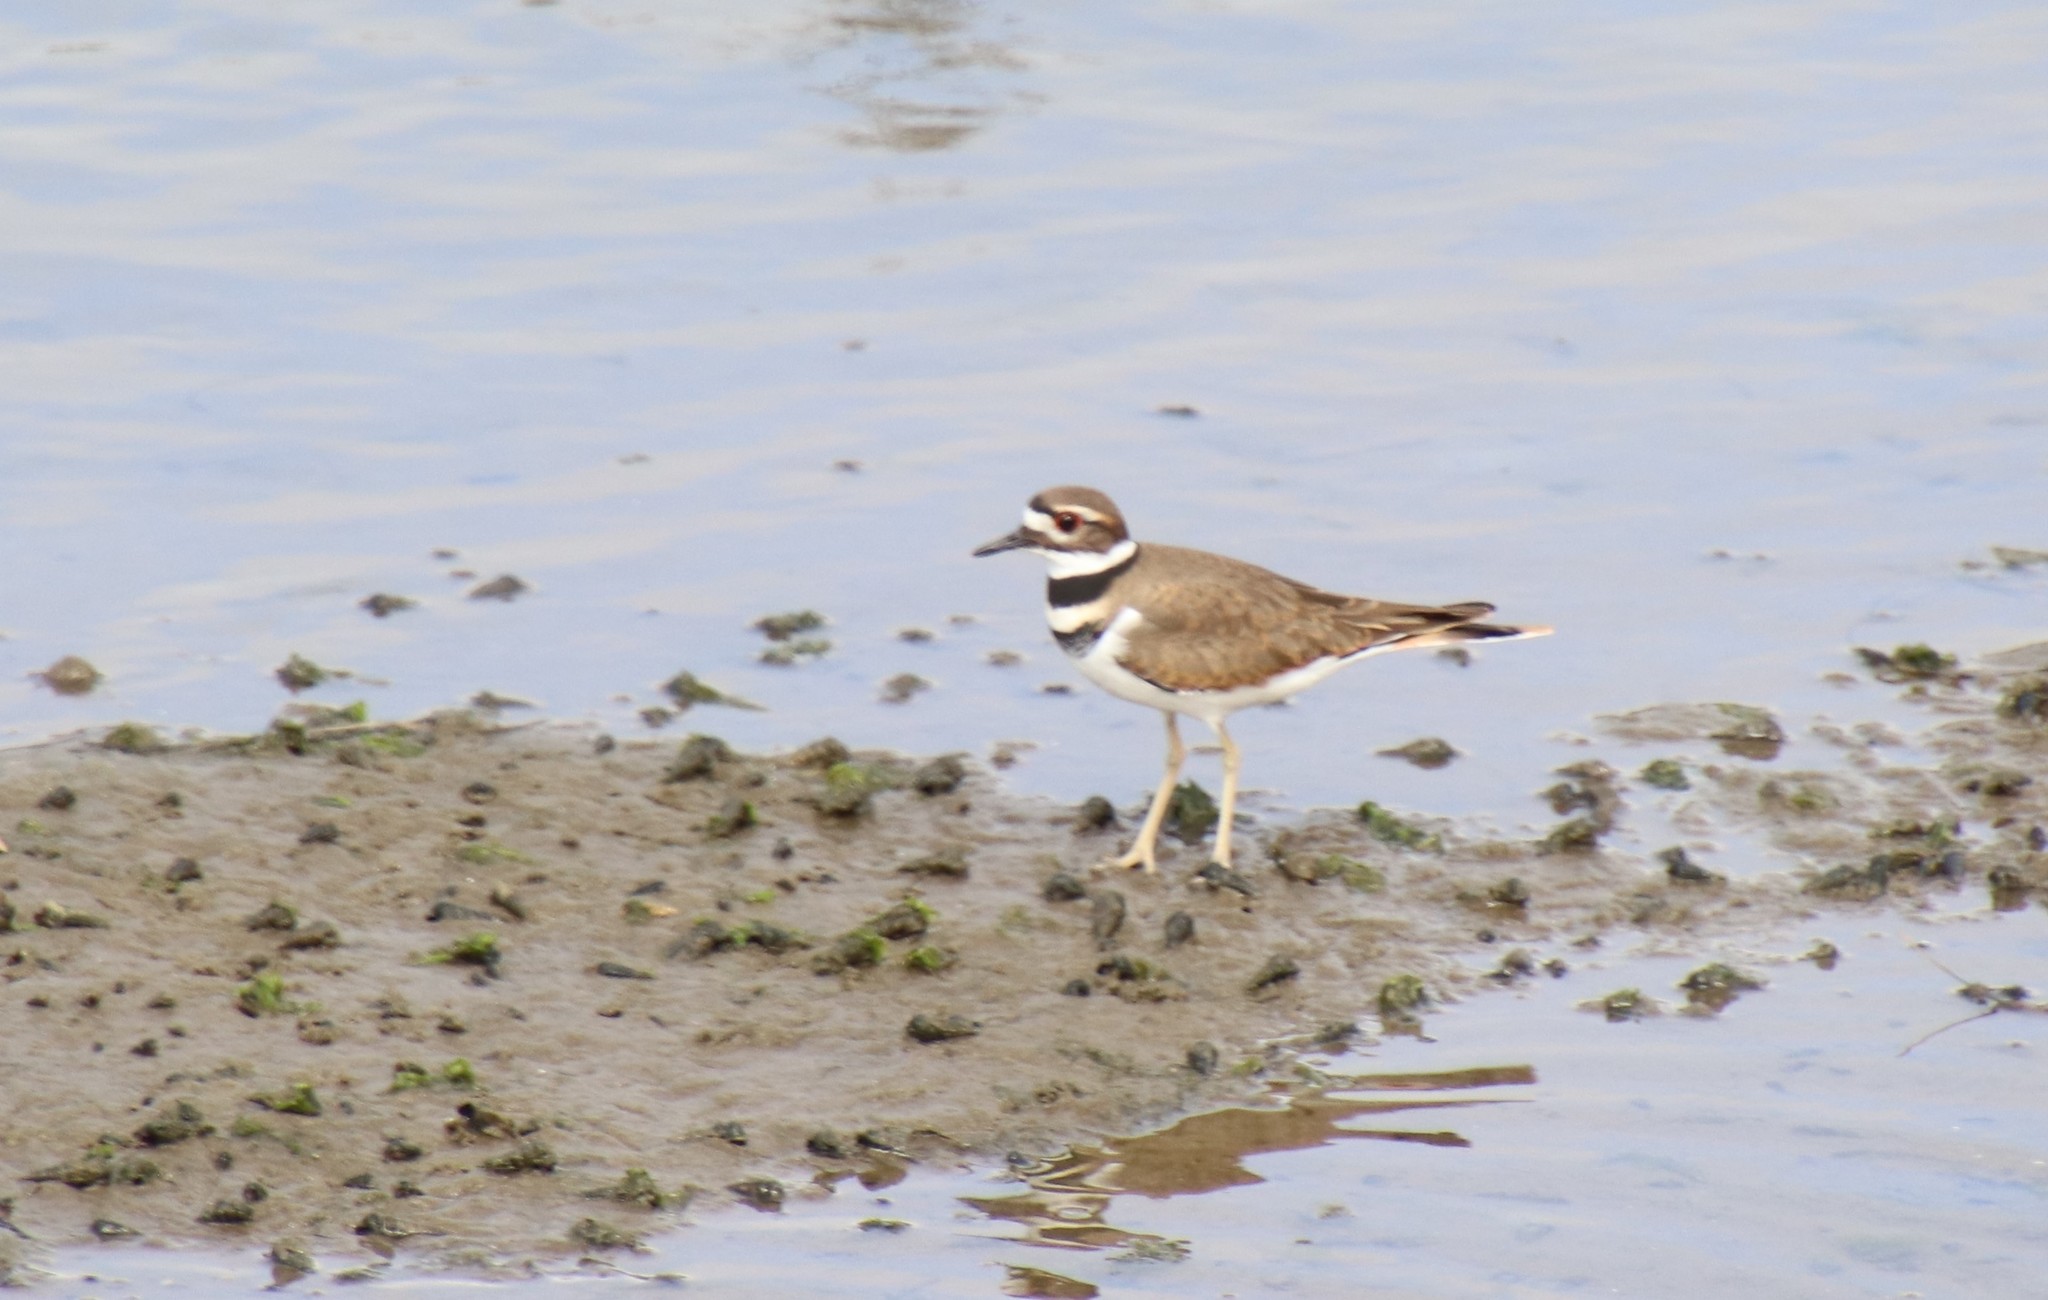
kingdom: Animalia
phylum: Chordata
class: Aves
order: Charadriiformes
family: Charadriidae
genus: Charadrius
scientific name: Charadrius vociferus
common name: Killdeer
